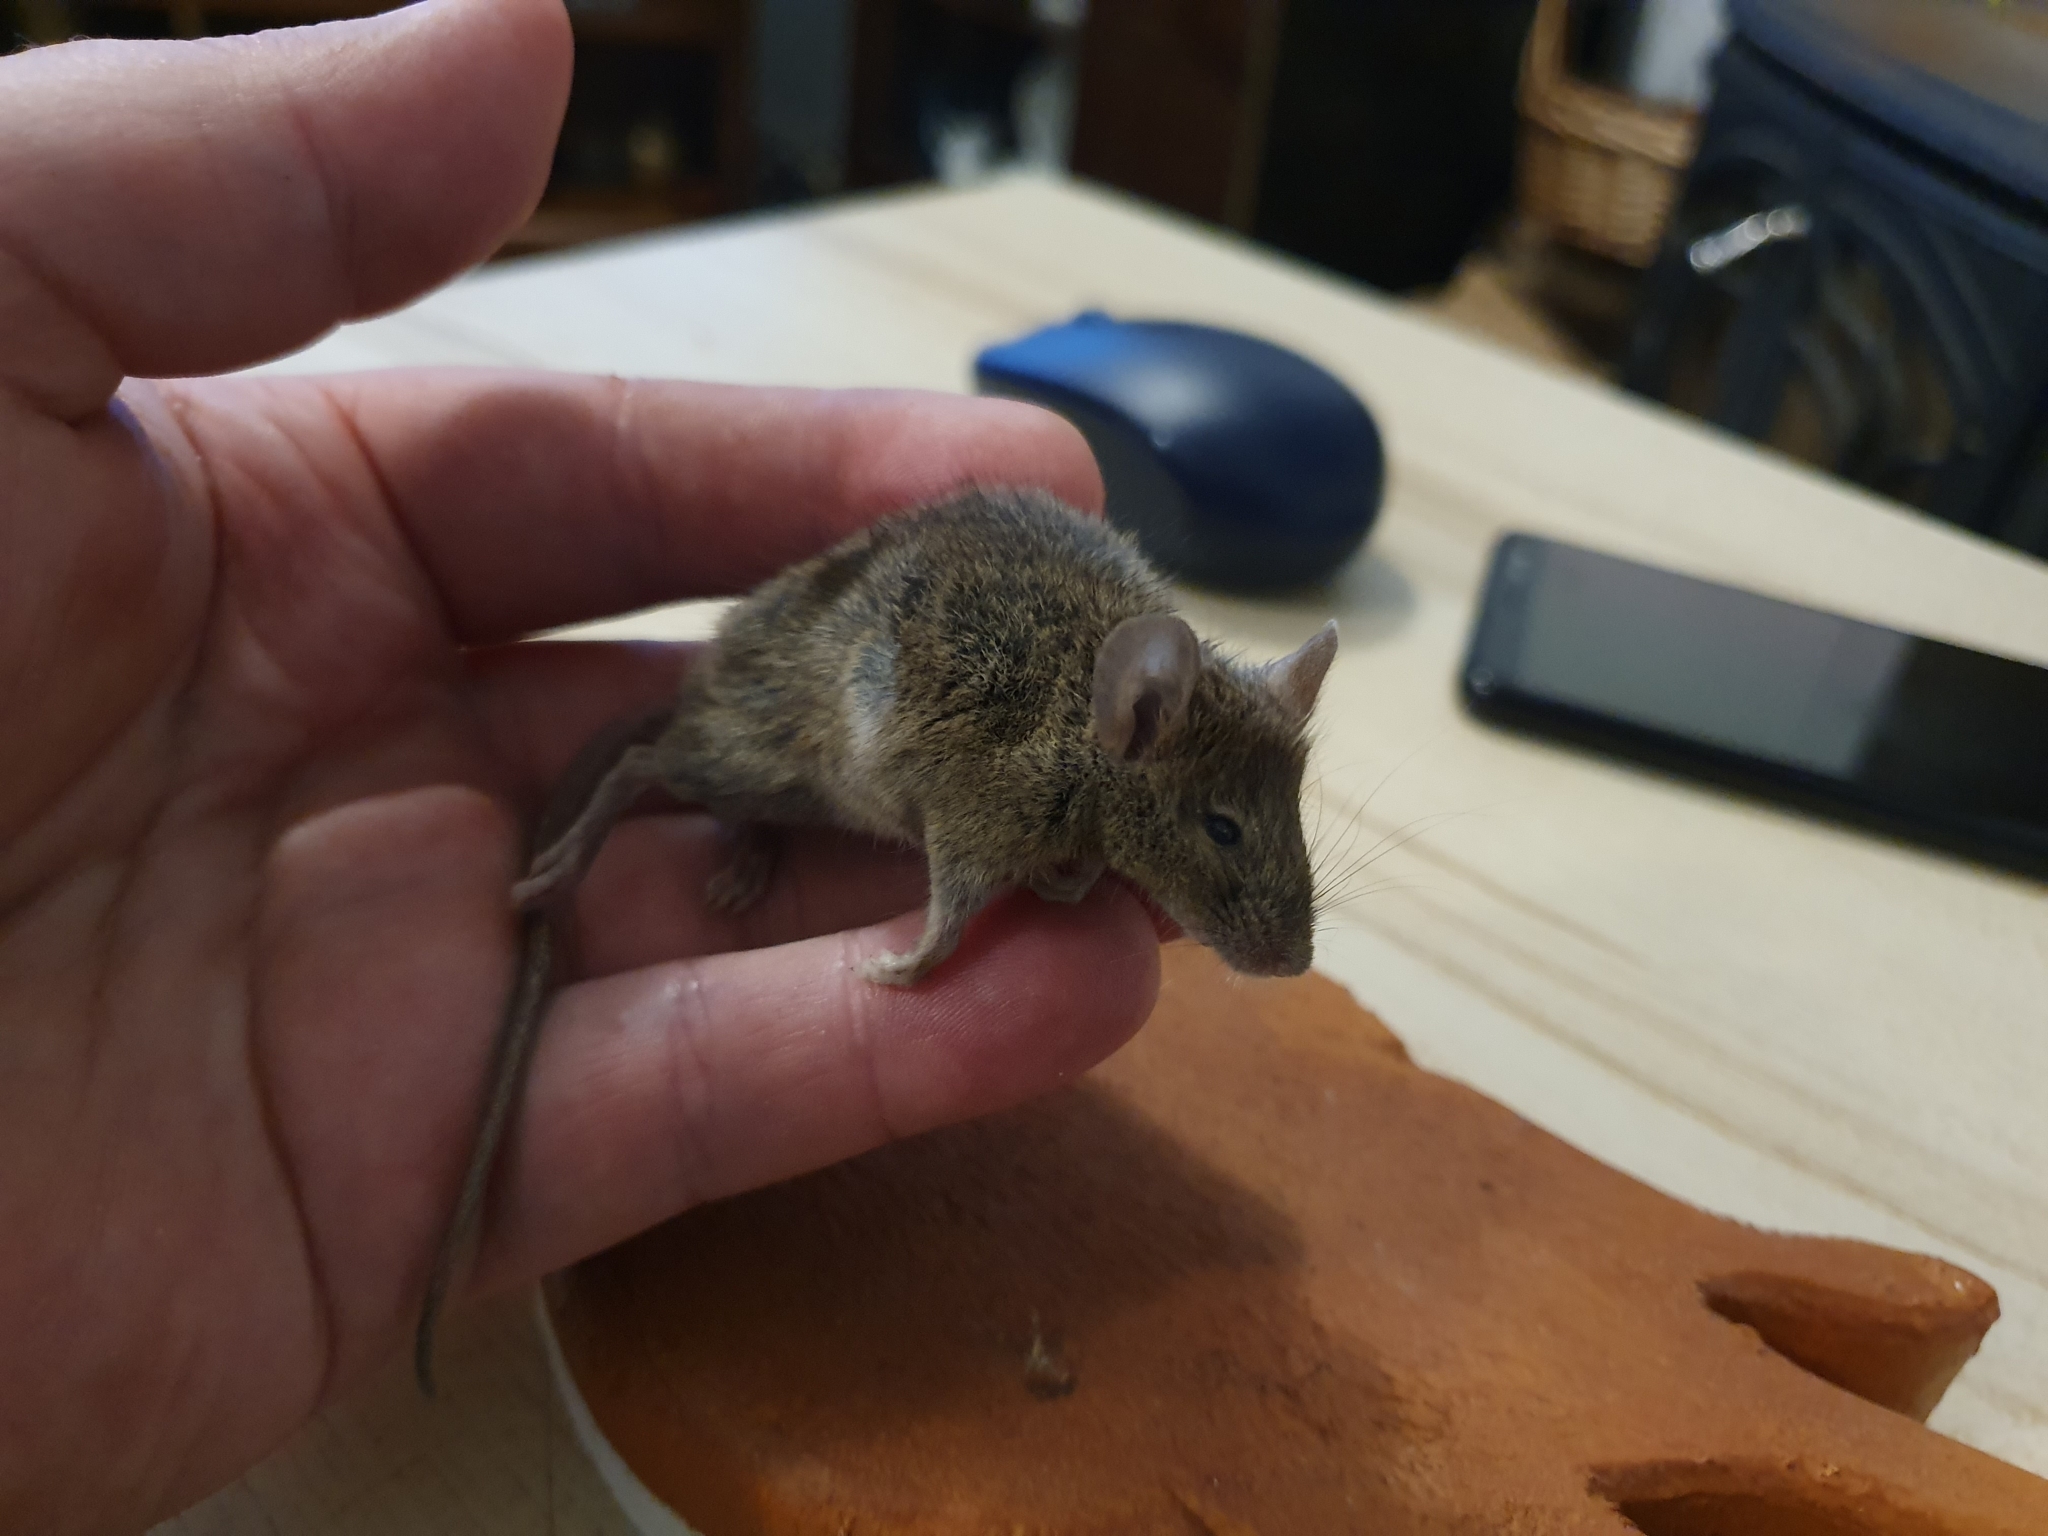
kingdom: Animalia
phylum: Chordata
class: Mammalia
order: Rodentia
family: Muridae
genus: Mus
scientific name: Mus musculus
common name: House mouse
